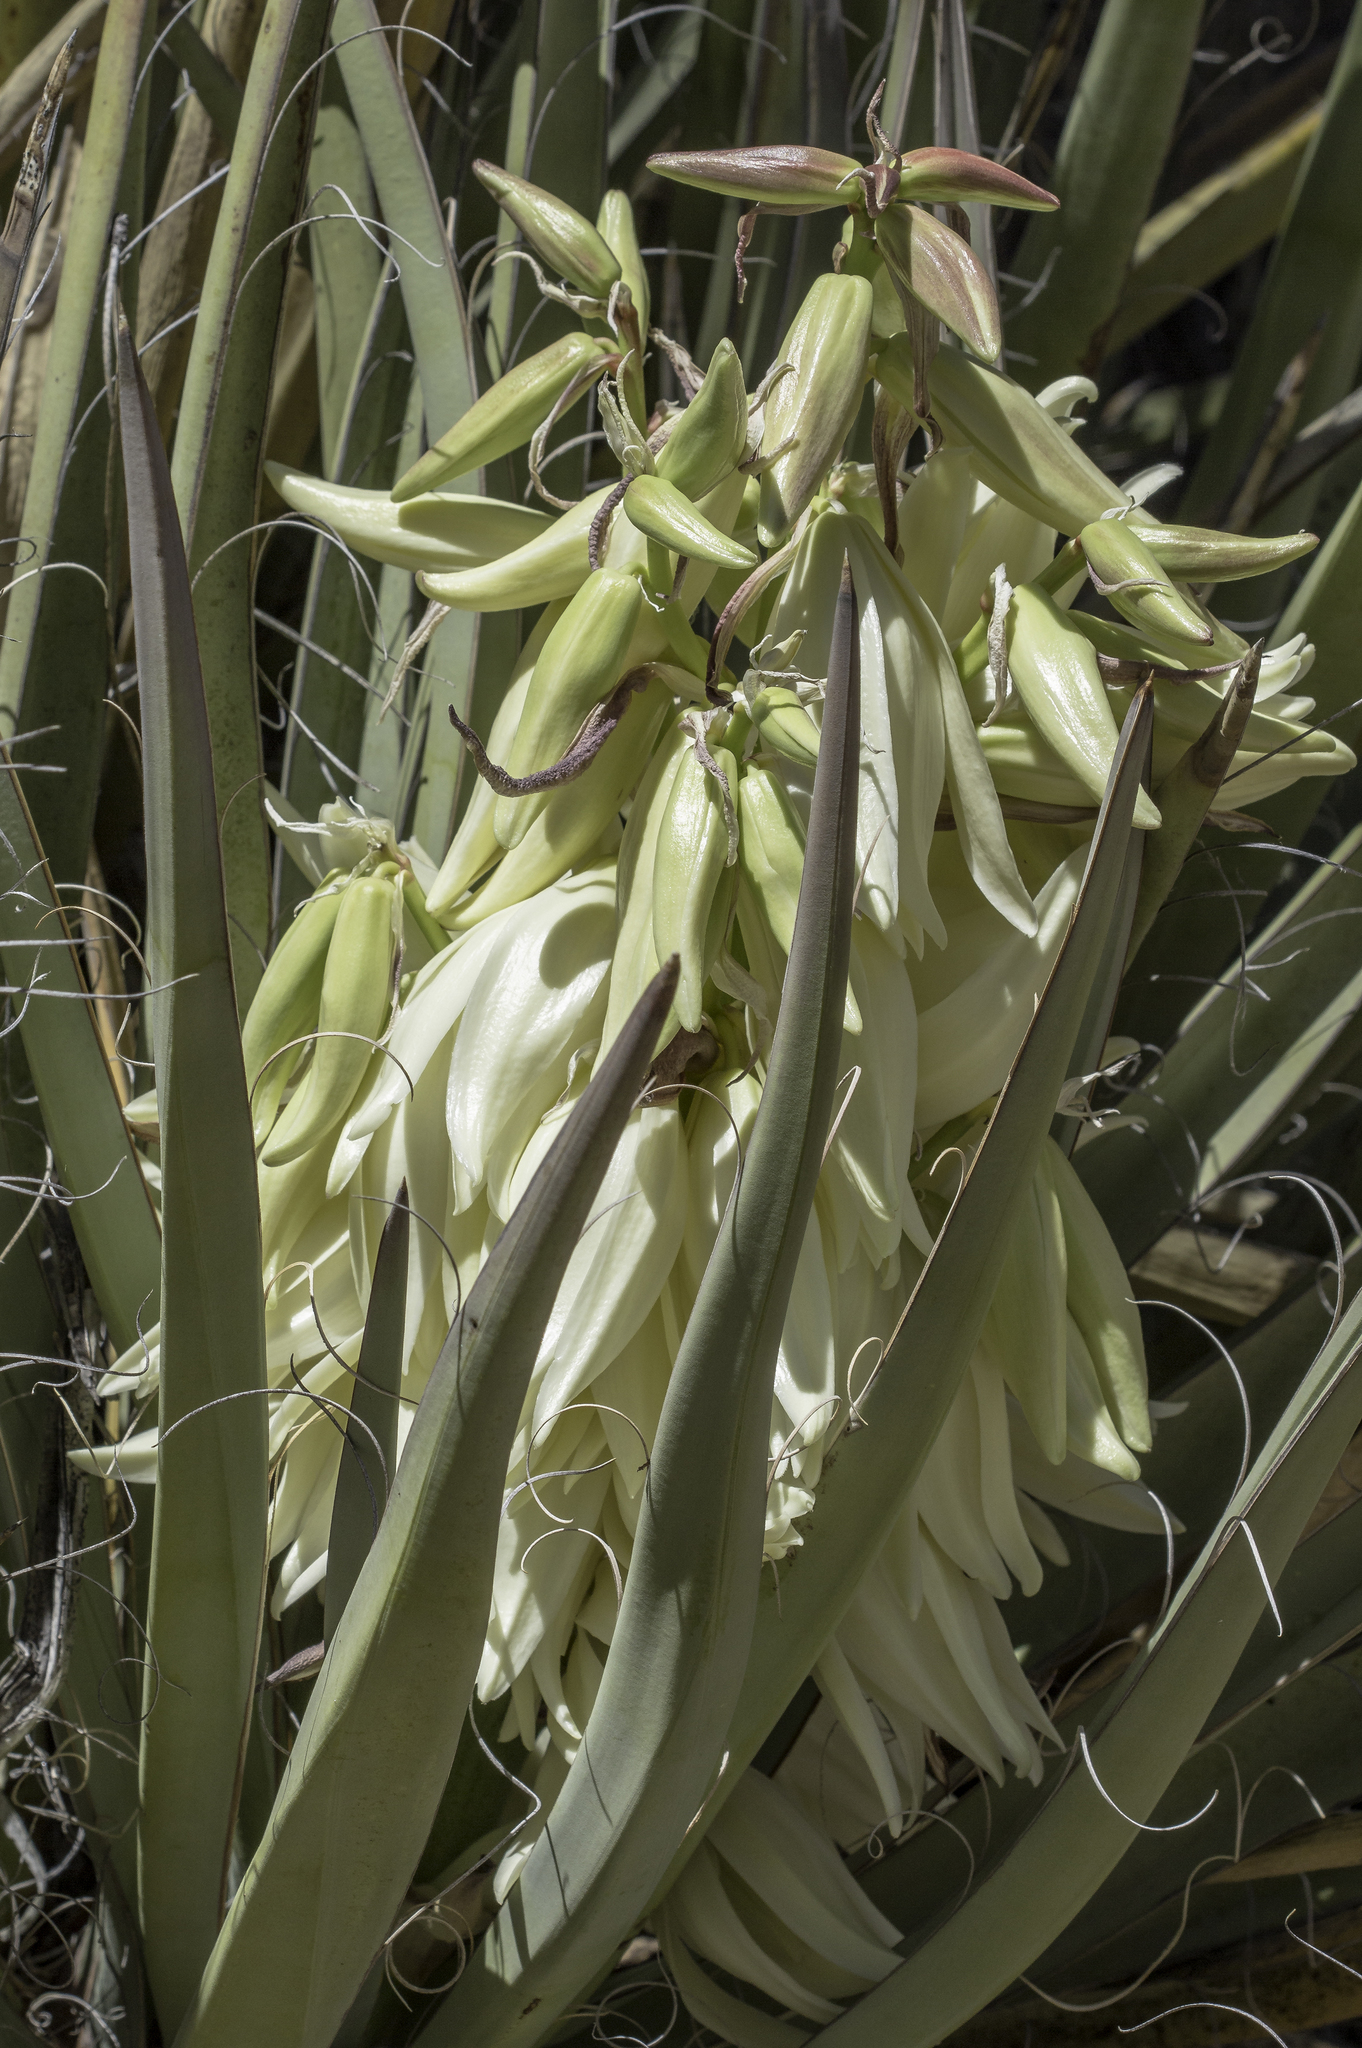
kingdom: Plantae
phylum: Tracheophyta
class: Liliopsida
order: Asparagales
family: Asparagaceae
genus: Yucca
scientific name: Yucca baccata
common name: Banana yucca
